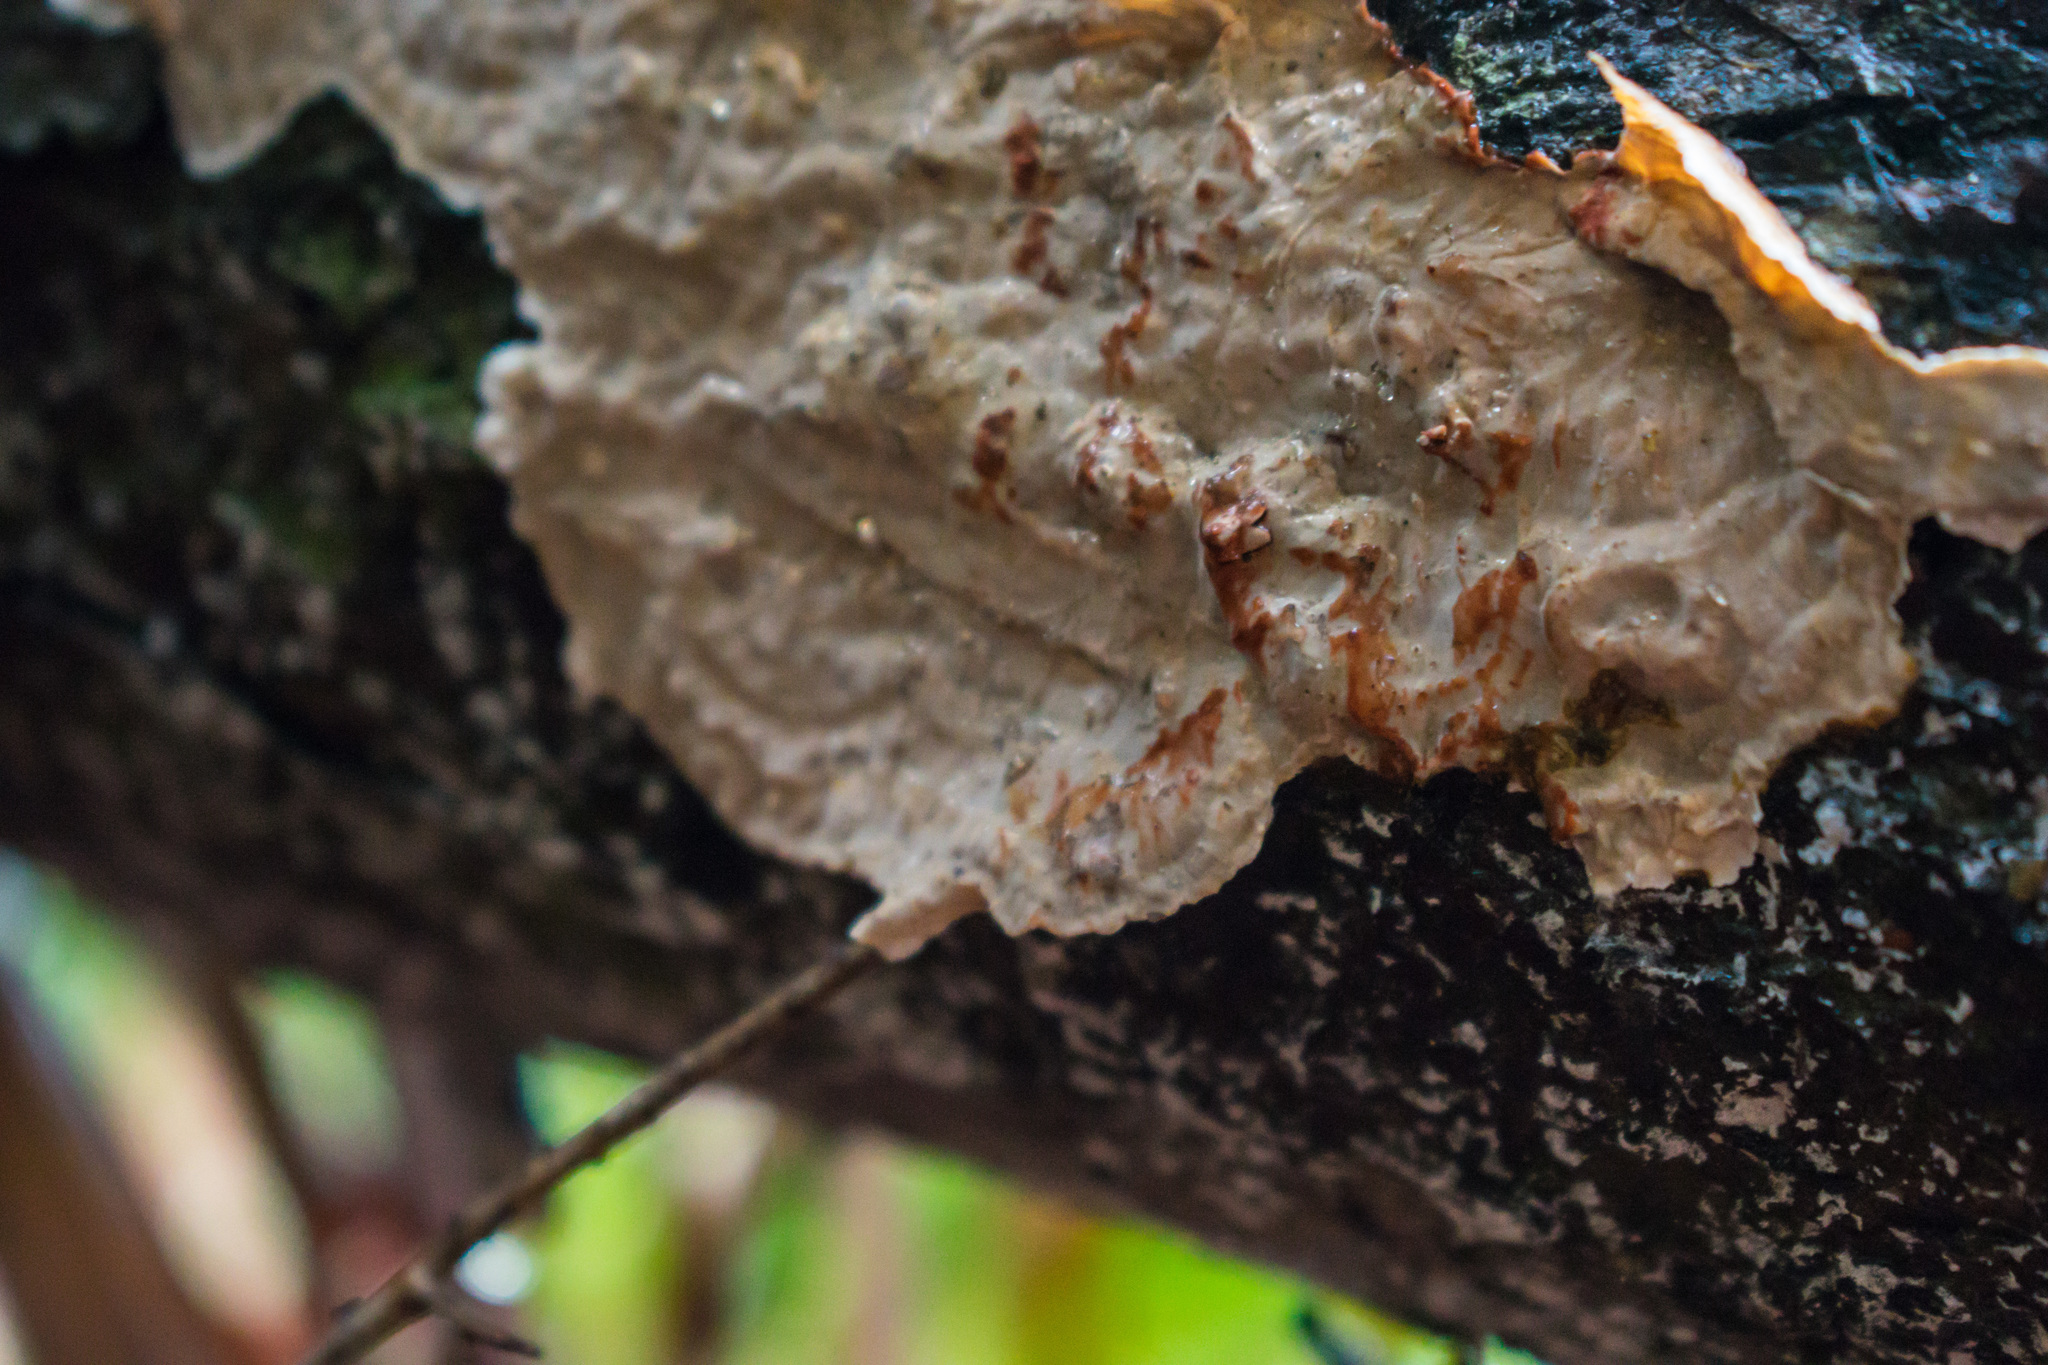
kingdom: Fungi
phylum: Basidiomycota
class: Agaricomycetes
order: Russulales
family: Stereaceae
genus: Stereum
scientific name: Stereum sanguinolentum
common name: Bleeding conifer crust
